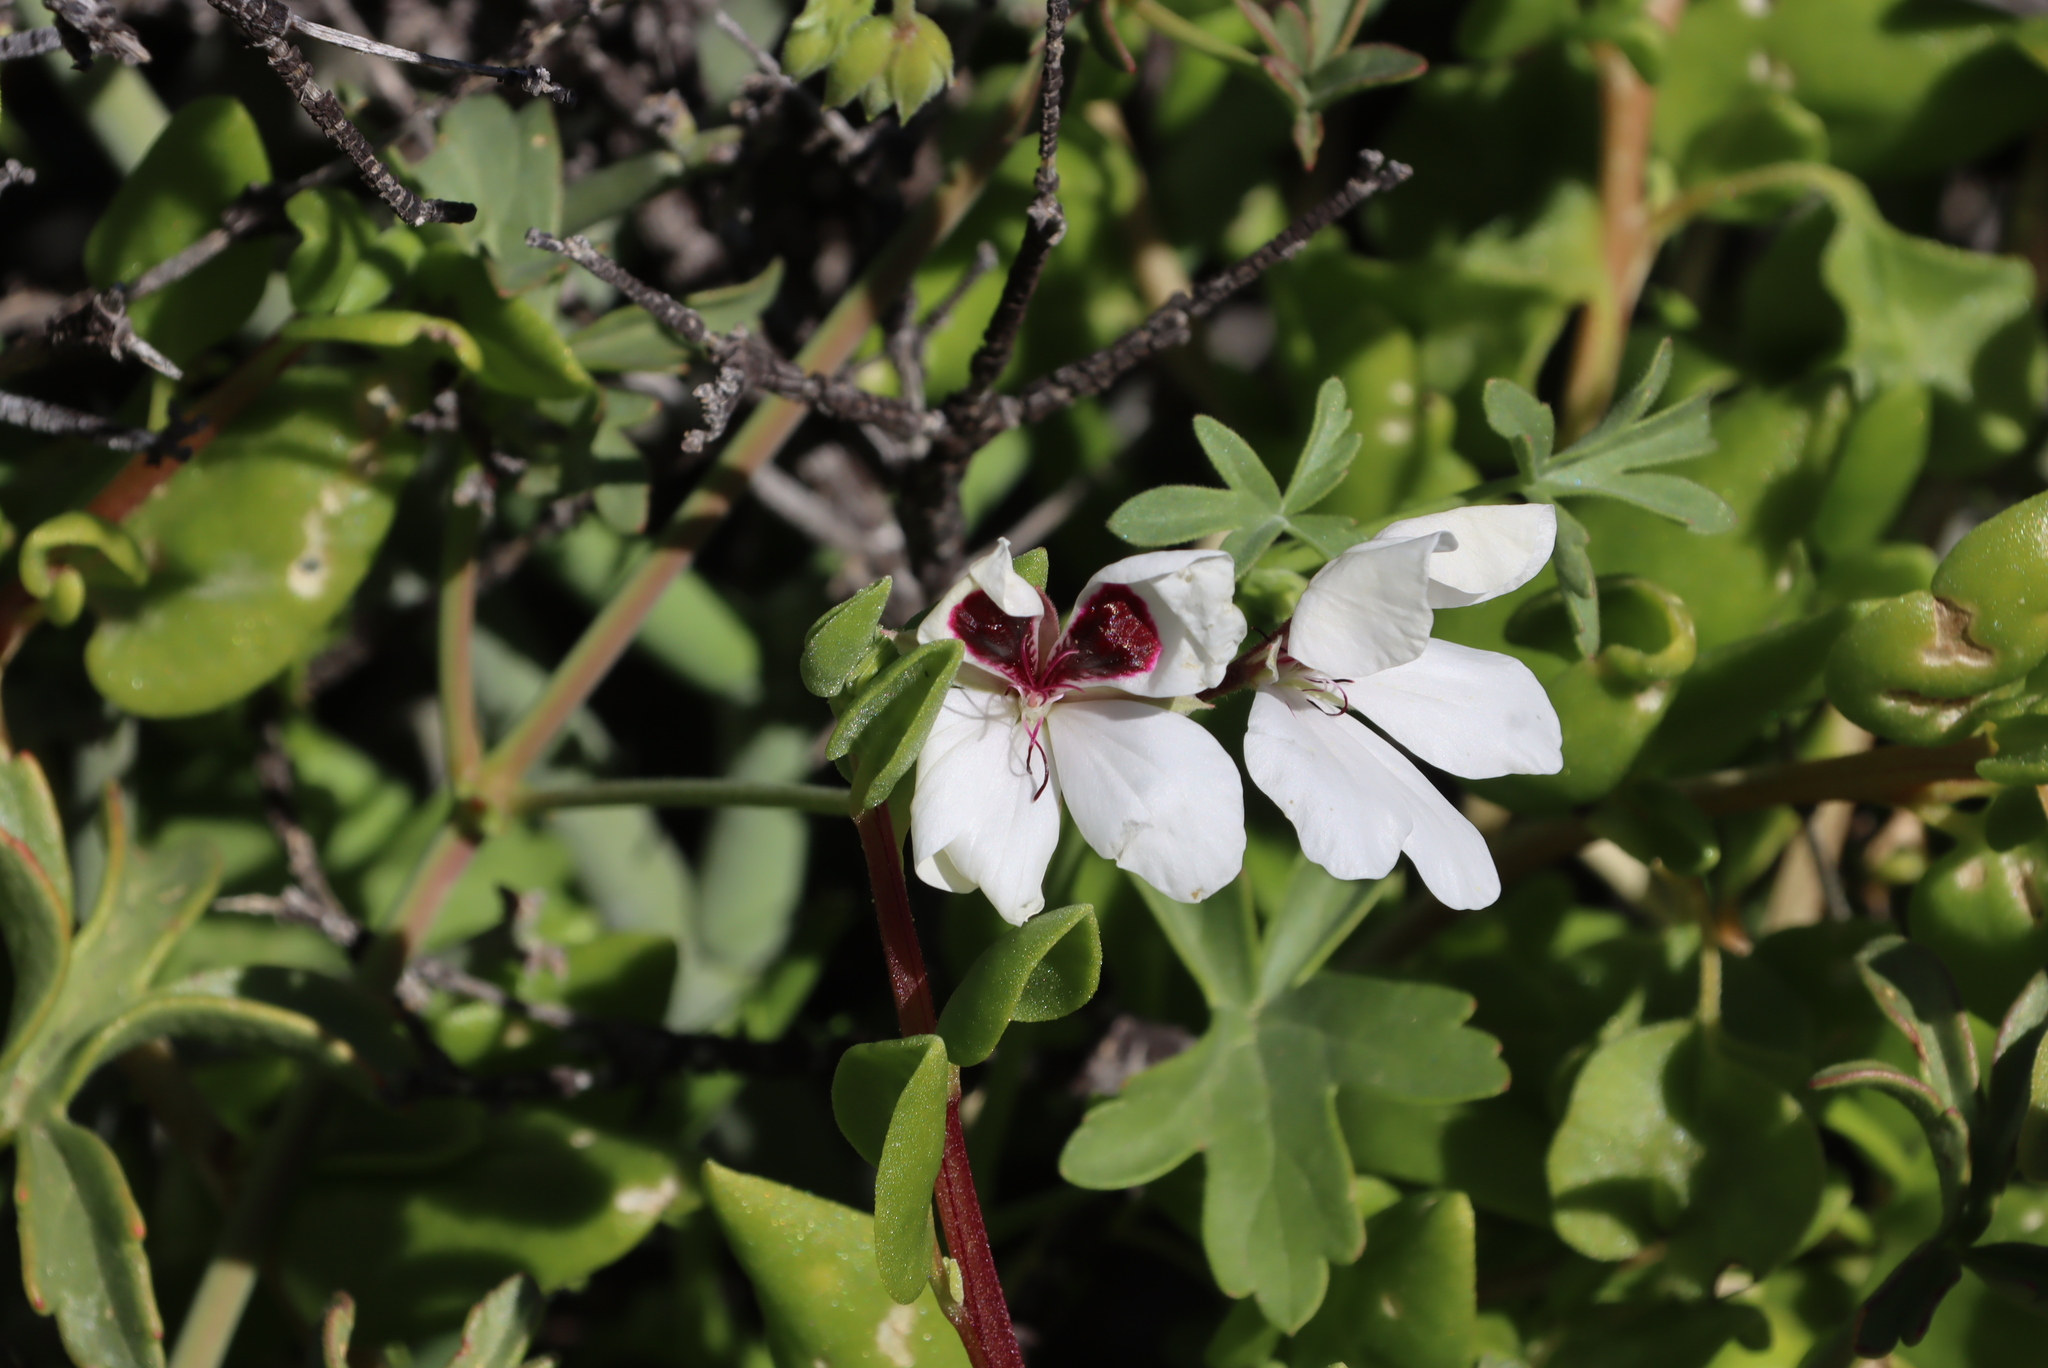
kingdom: Plantae
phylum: Tracheophyta
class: Magnoliopsida
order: Geraniales
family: Geraniaceae
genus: Pelargonium
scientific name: Pelargonium tenuicaule
